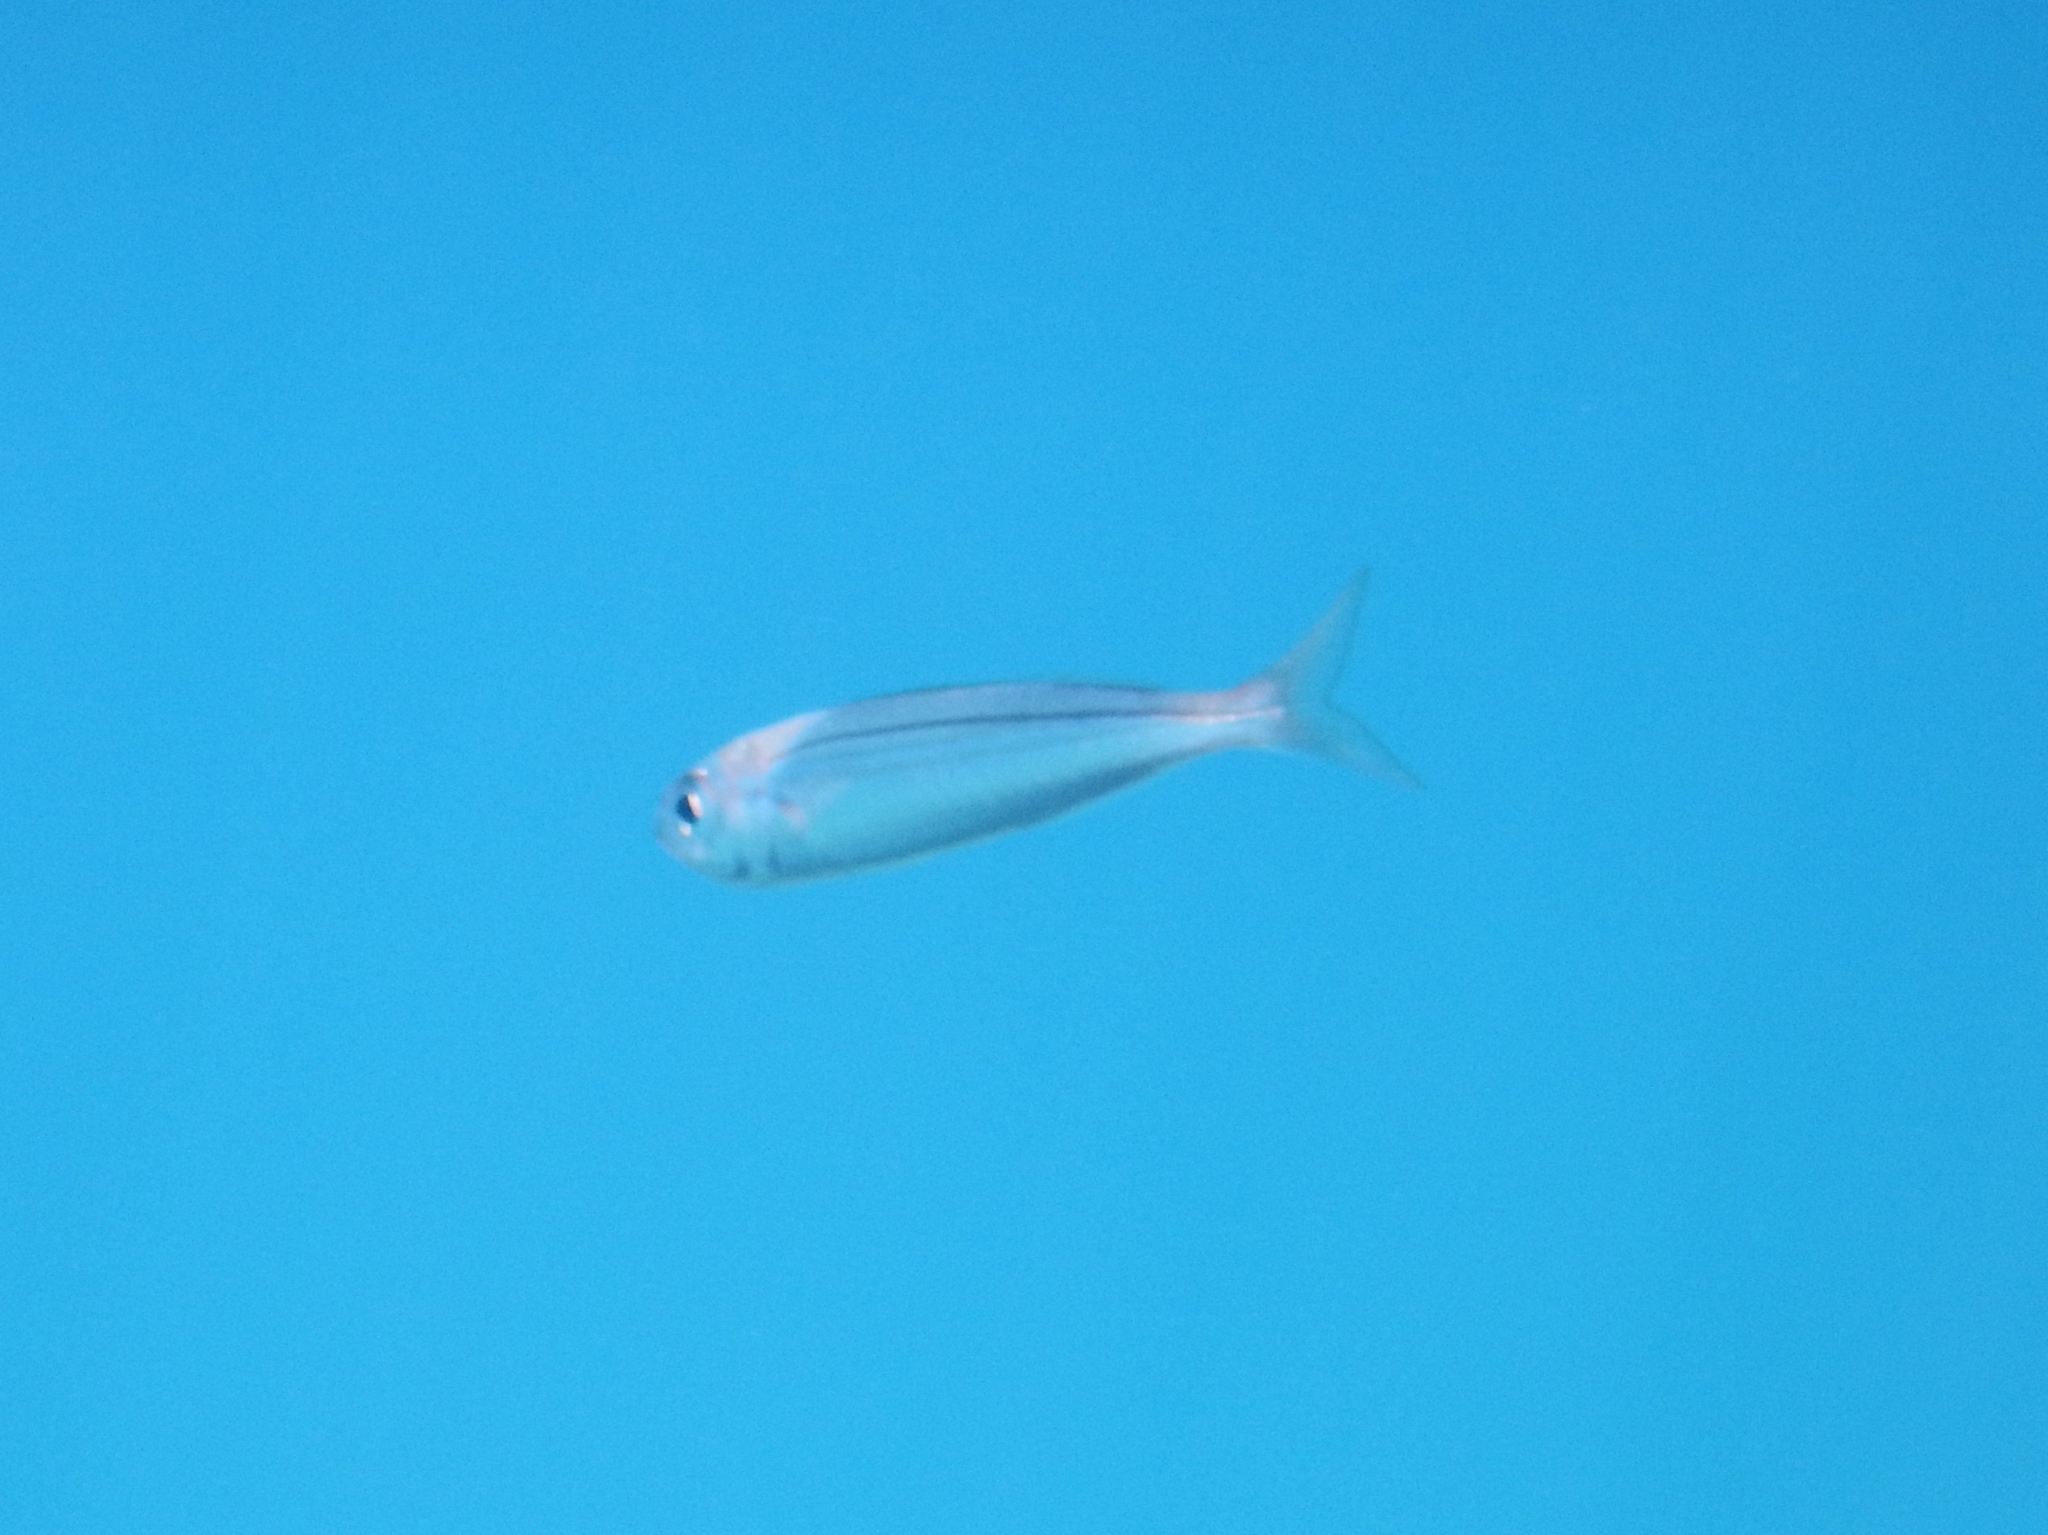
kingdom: Animalia
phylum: Chordata
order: Perciformes
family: Sparidae
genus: Boops
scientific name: Boops boops
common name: Bogue
